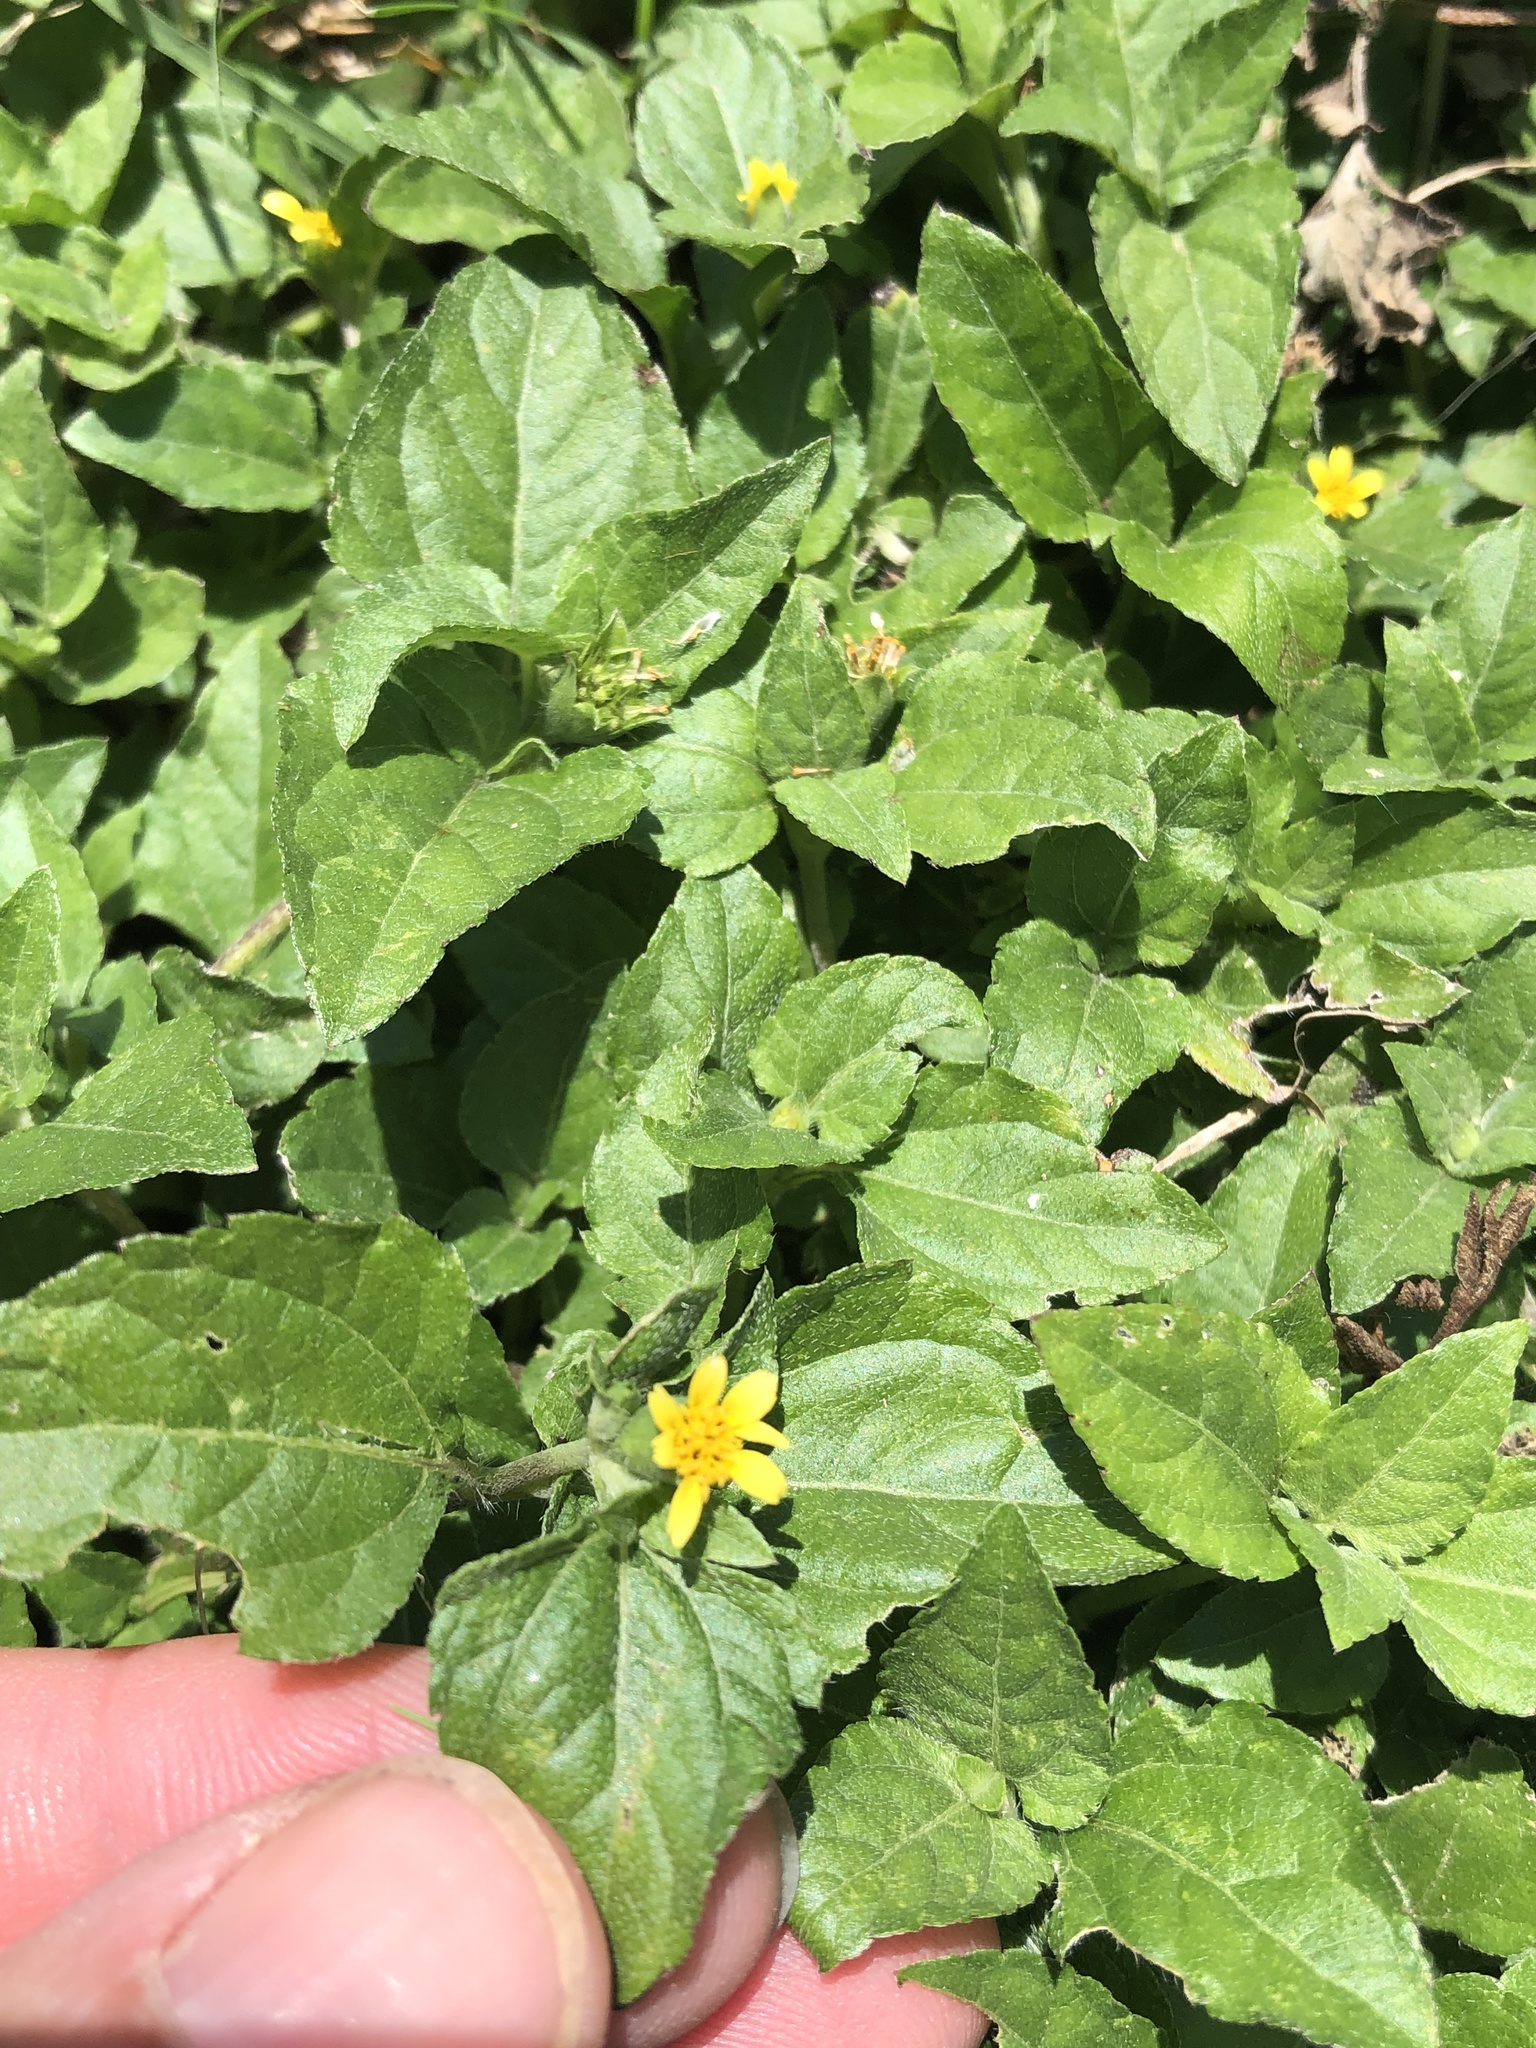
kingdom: Plantae
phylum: Tracheophyta
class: Magnoliopsida
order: Asterales
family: Asteraceae
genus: Calyptocarpus
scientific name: Calyptocarpus vialis
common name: Straggler daisy
